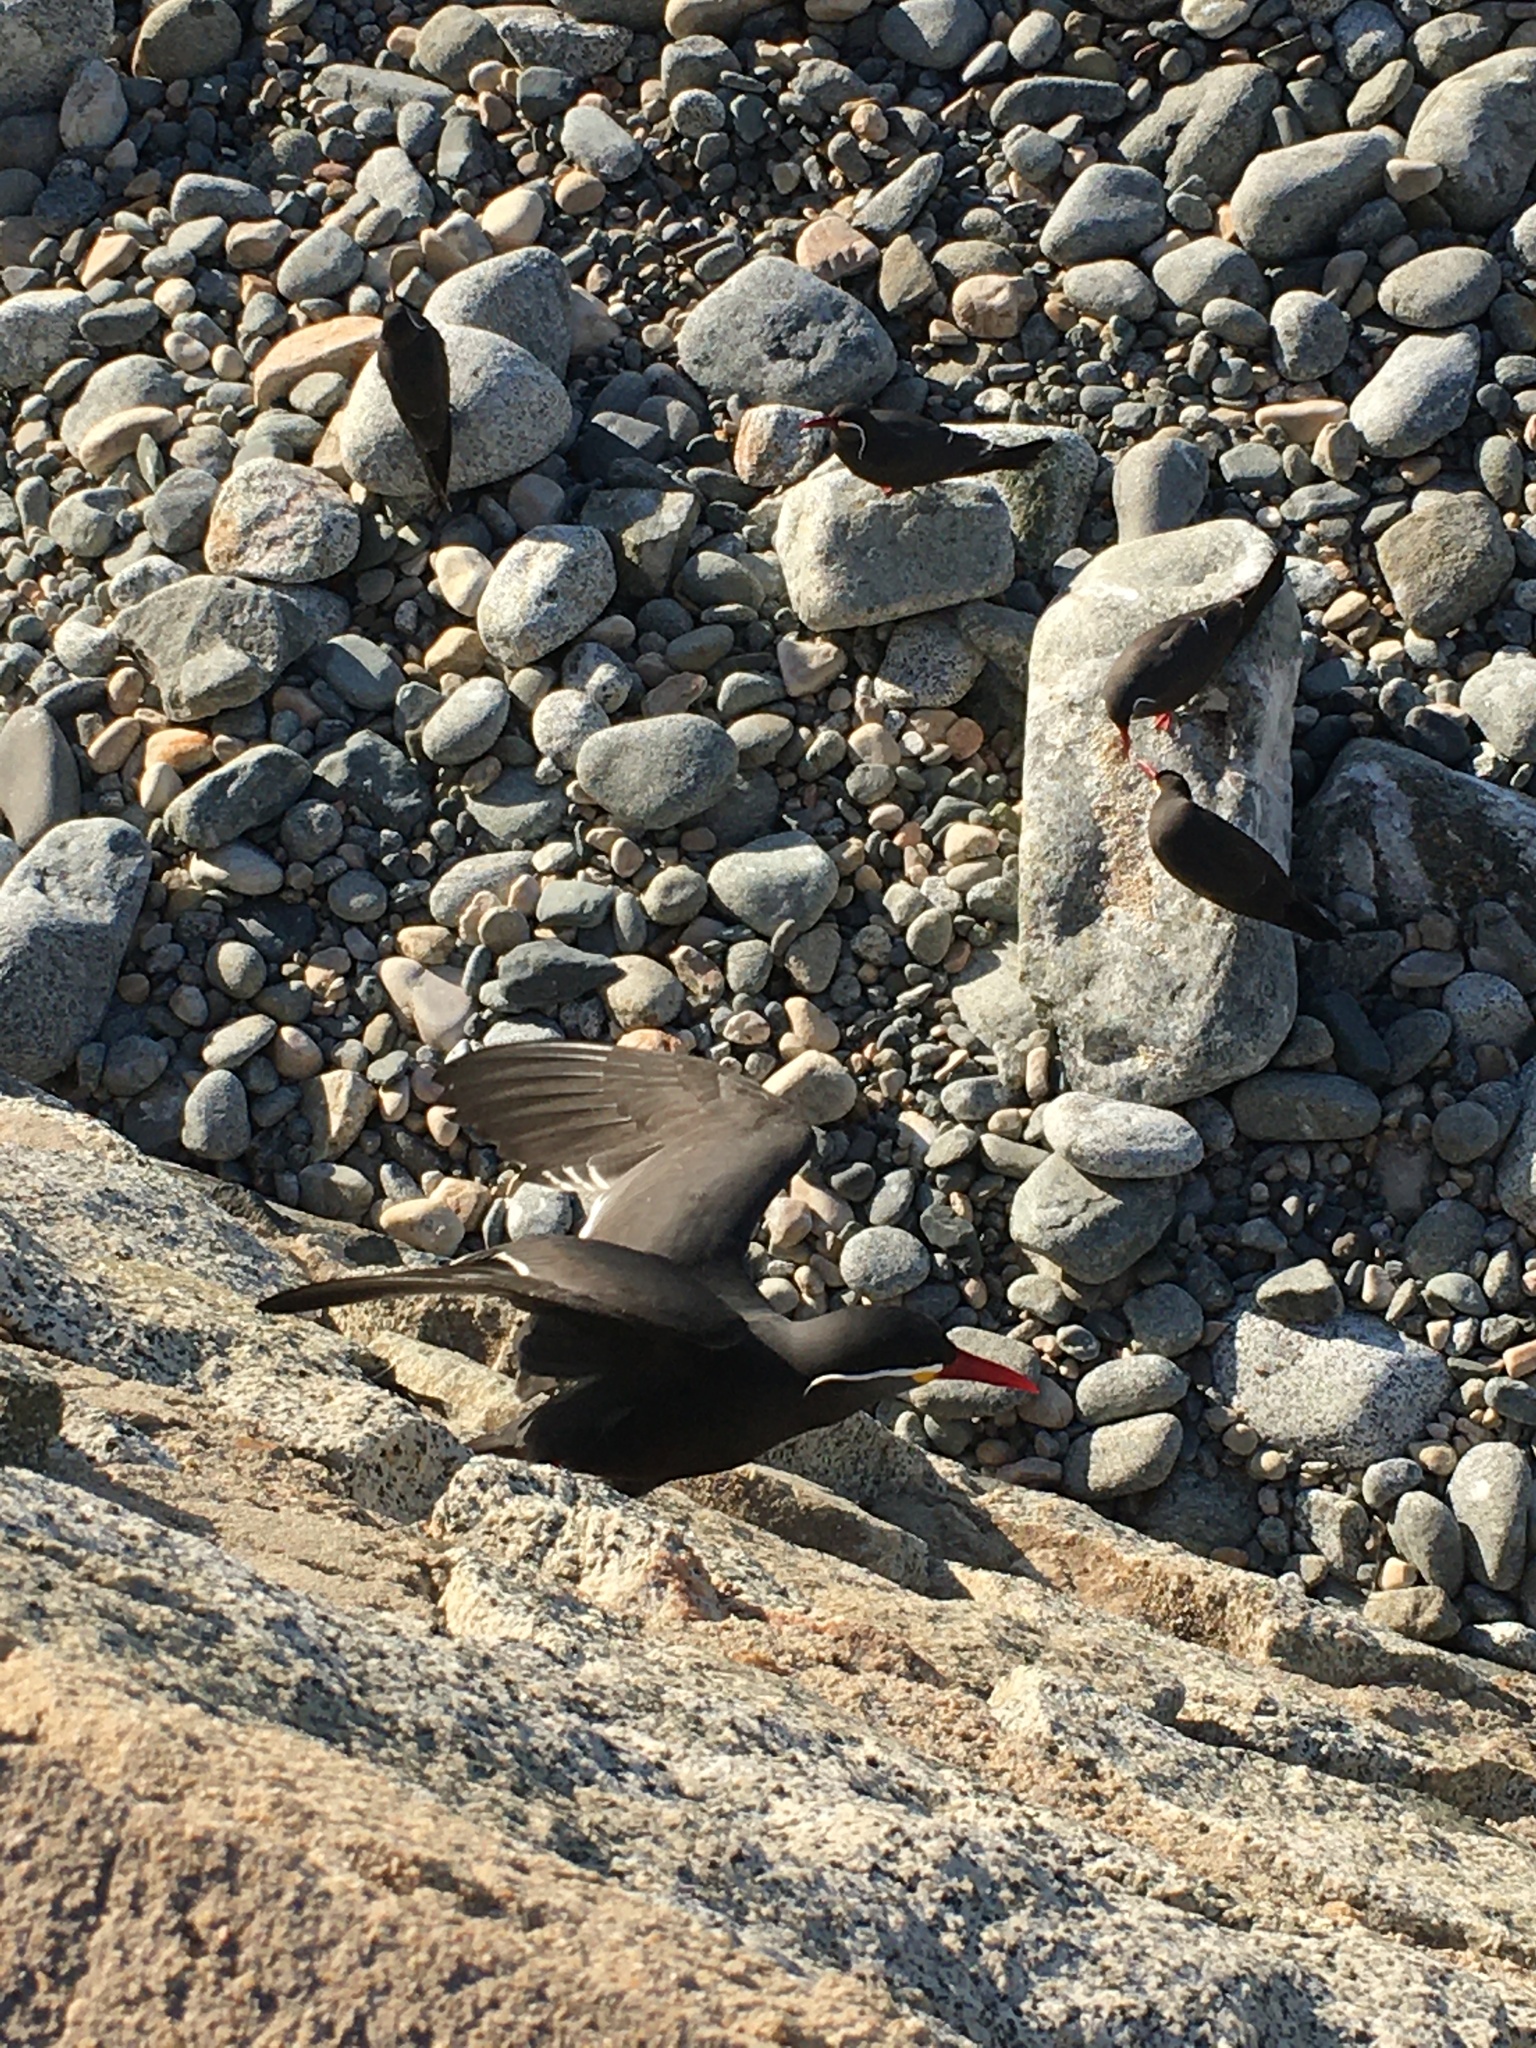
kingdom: Animalia
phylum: Chordata
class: Aves
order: Charadriiformes
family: Laridae
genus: Larosterna
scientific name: Larosterna inca
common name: Inca tern
